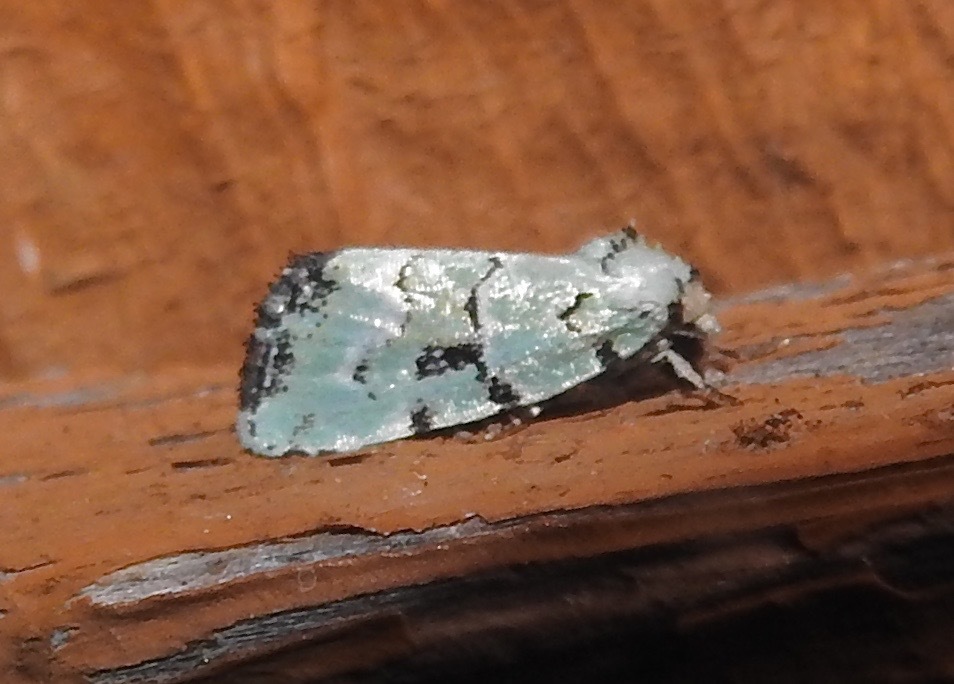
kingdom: Animalia
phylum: Arthropoda
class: Insecta
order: Lepidoptera
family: Noctuidae
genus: Elaphria
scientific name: Elaphria cyanympha
